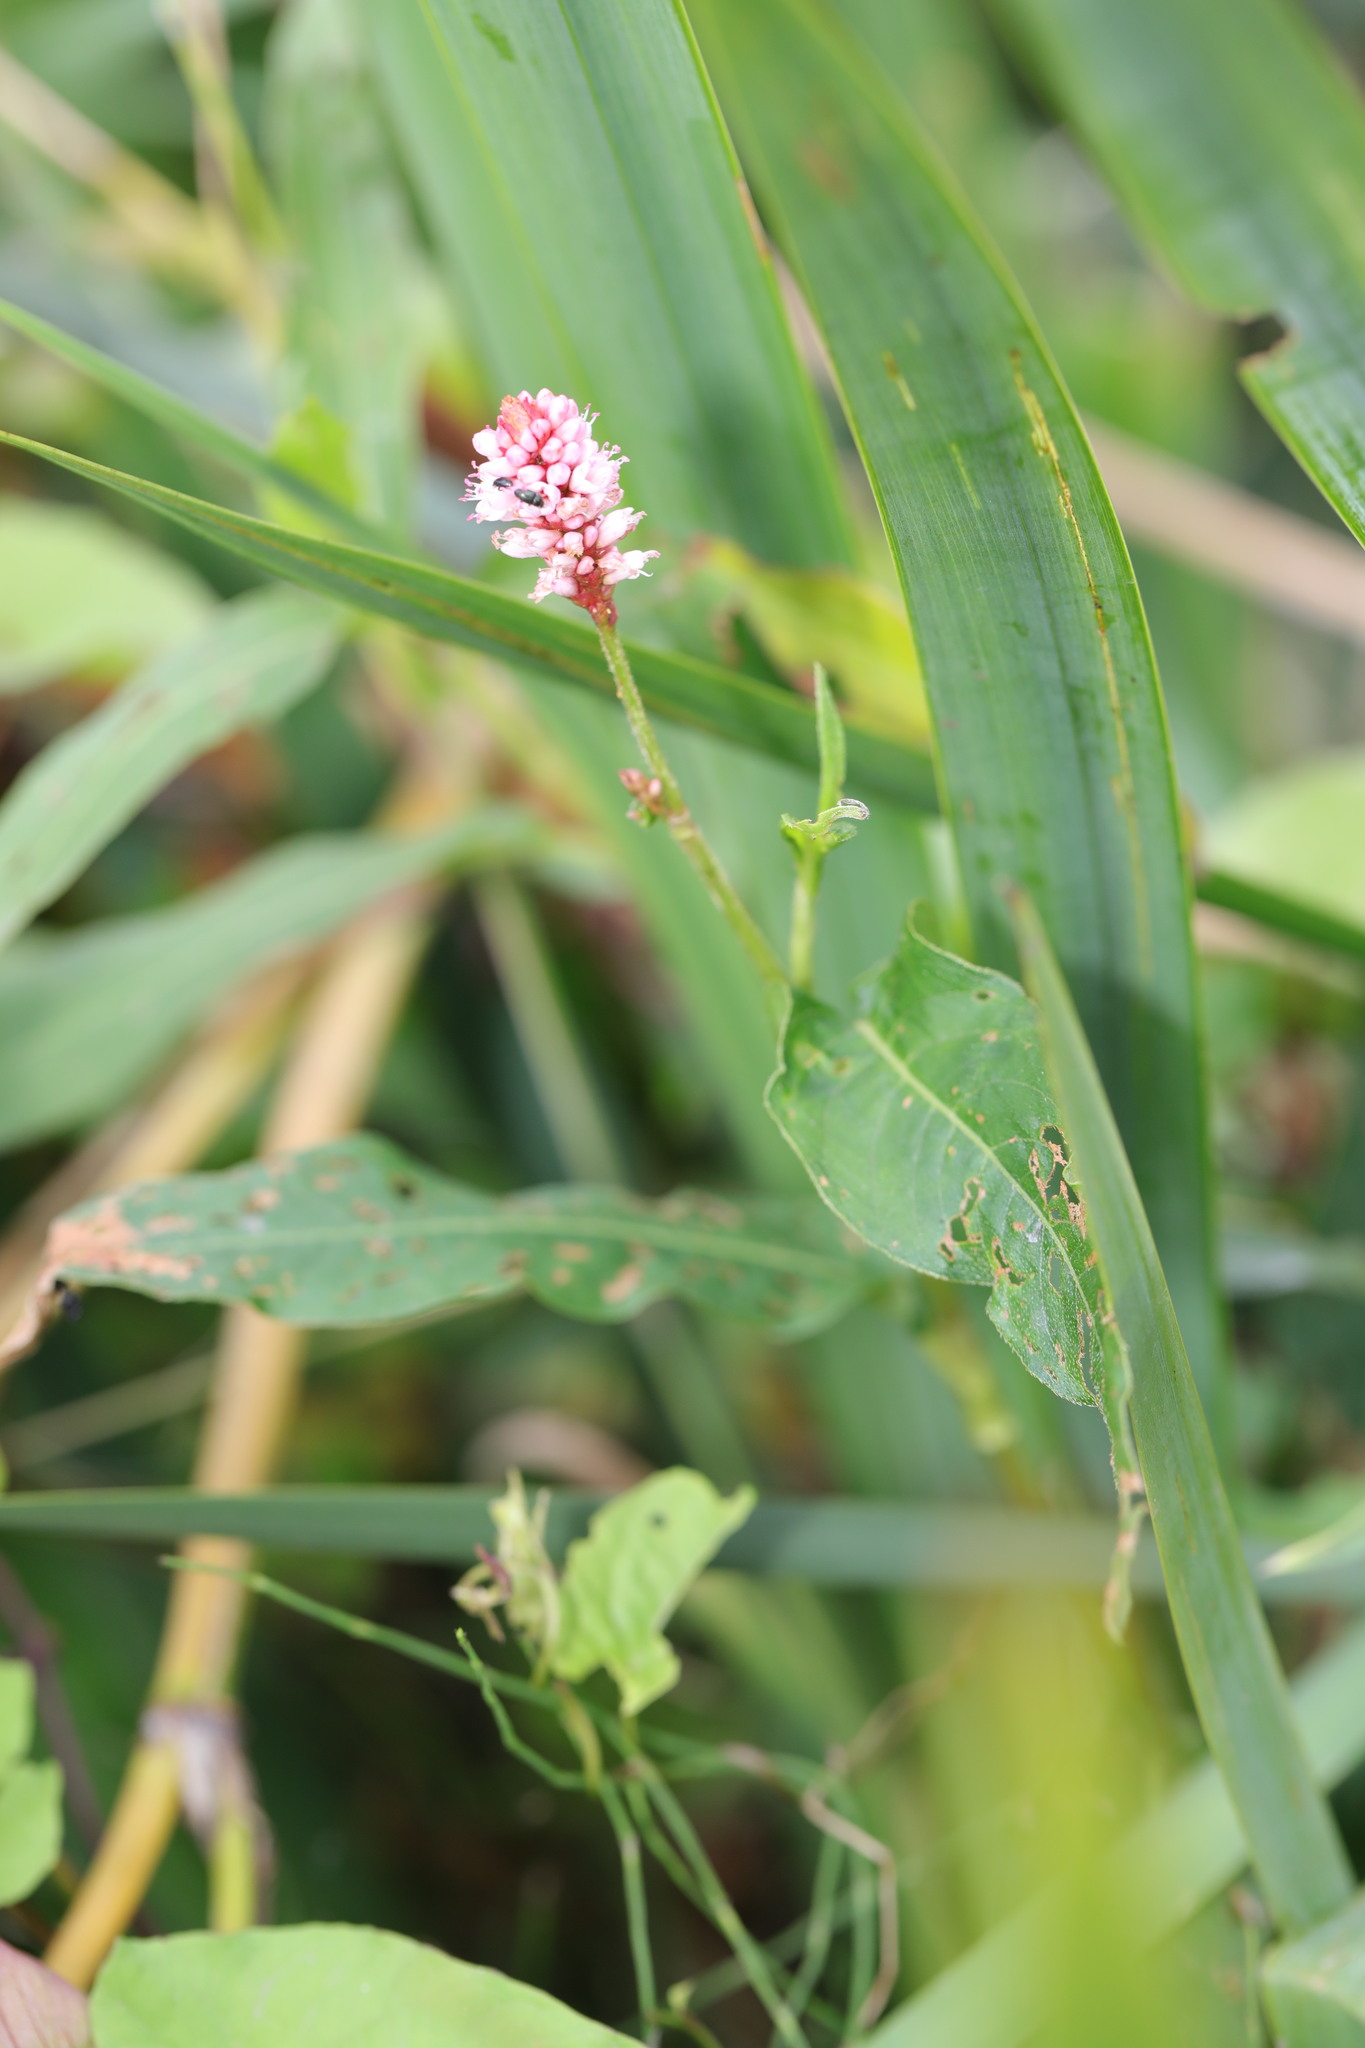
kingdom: Plantae
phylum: Tracheophyta
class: Magnoliopsida
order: Caryophyllales
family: Polygonaceae
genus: Persicaria
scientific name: Persicaria amphibia
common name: Amphibious bistort
